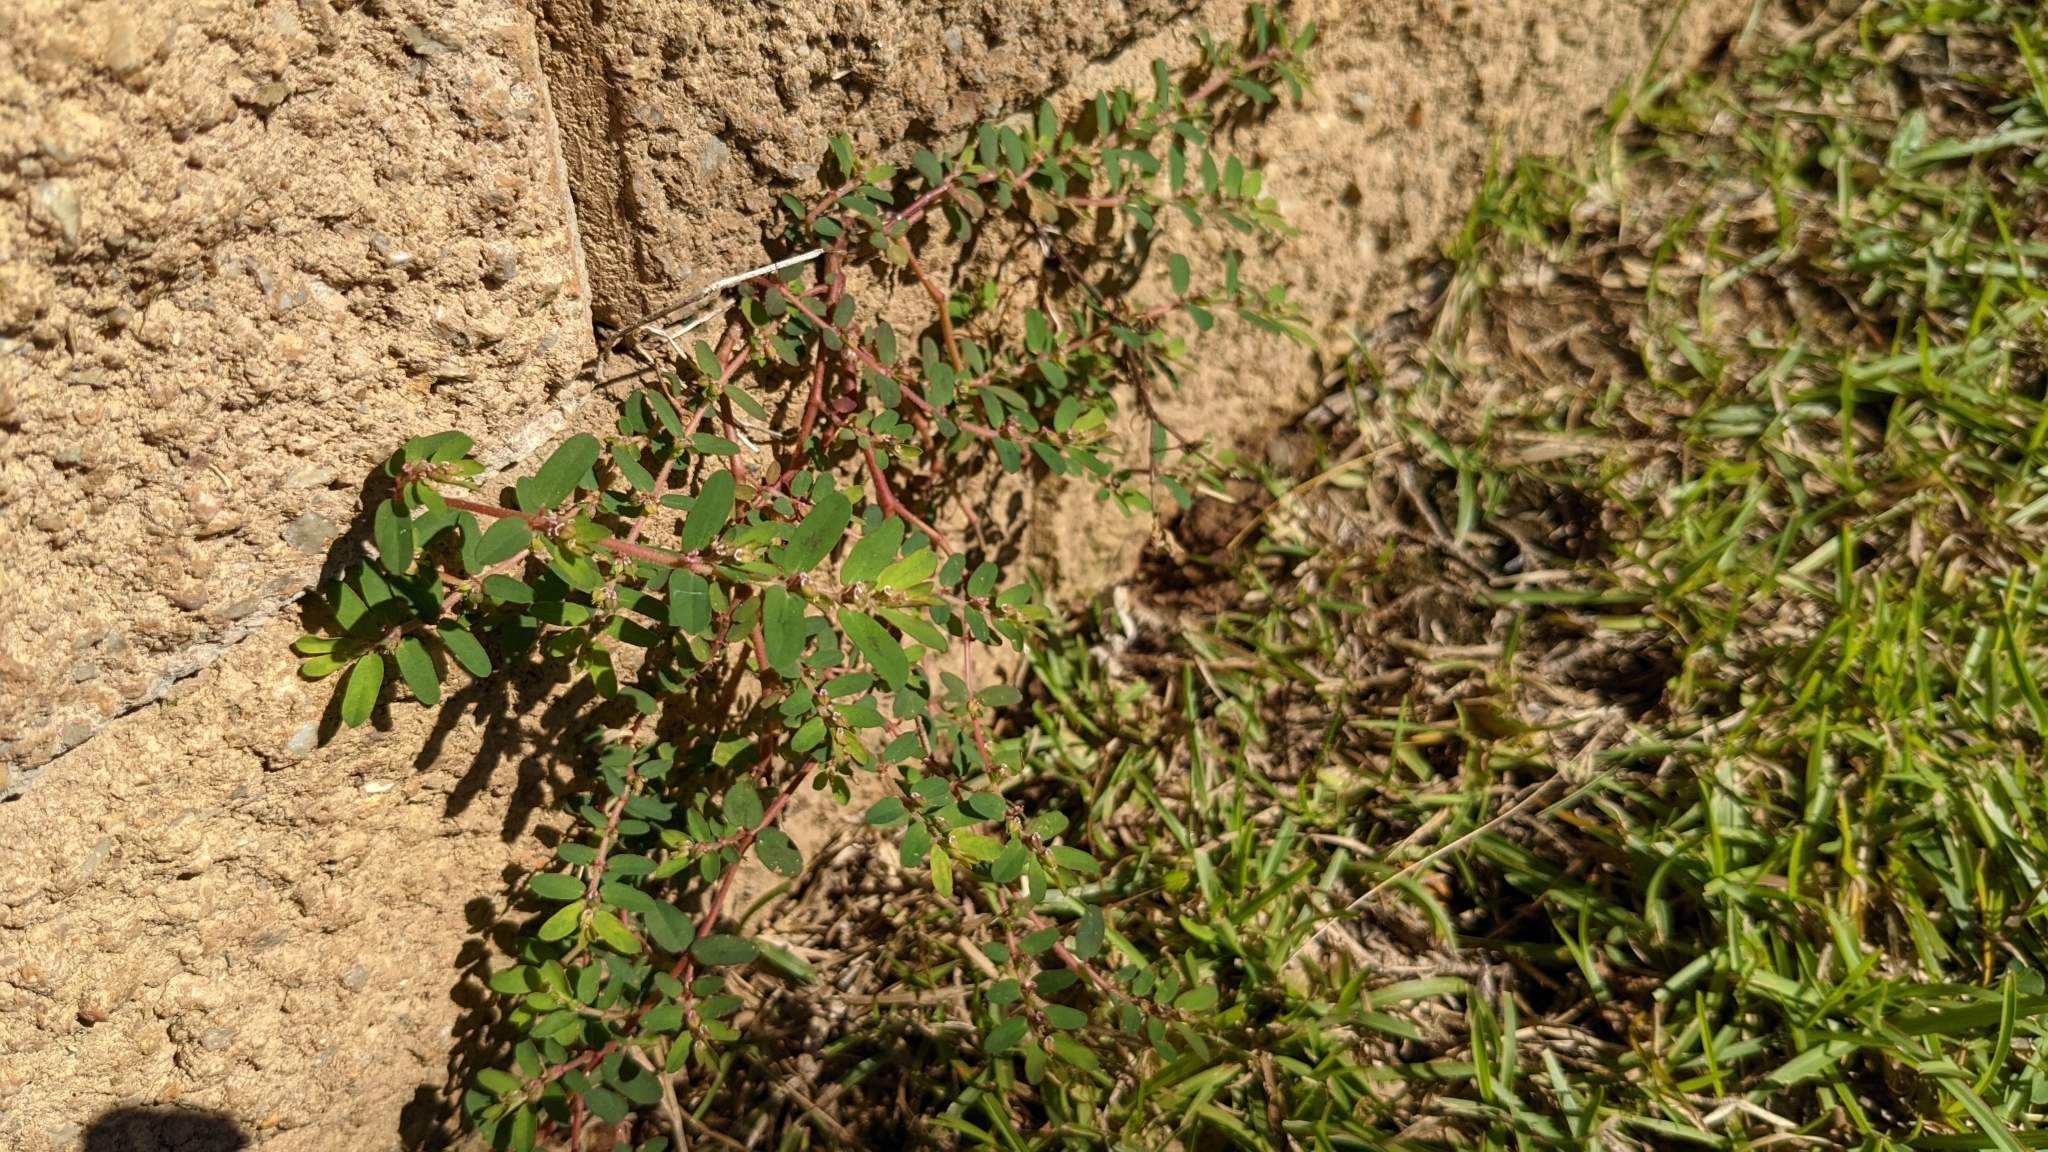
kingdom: Plantae
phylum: Tracheophyta
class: Magnoliopsida
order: Malpighiales
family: Euphorbiaceae
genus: Euphorbia
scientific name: Euphorbia humistrata
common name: Hairy spreading spurge
